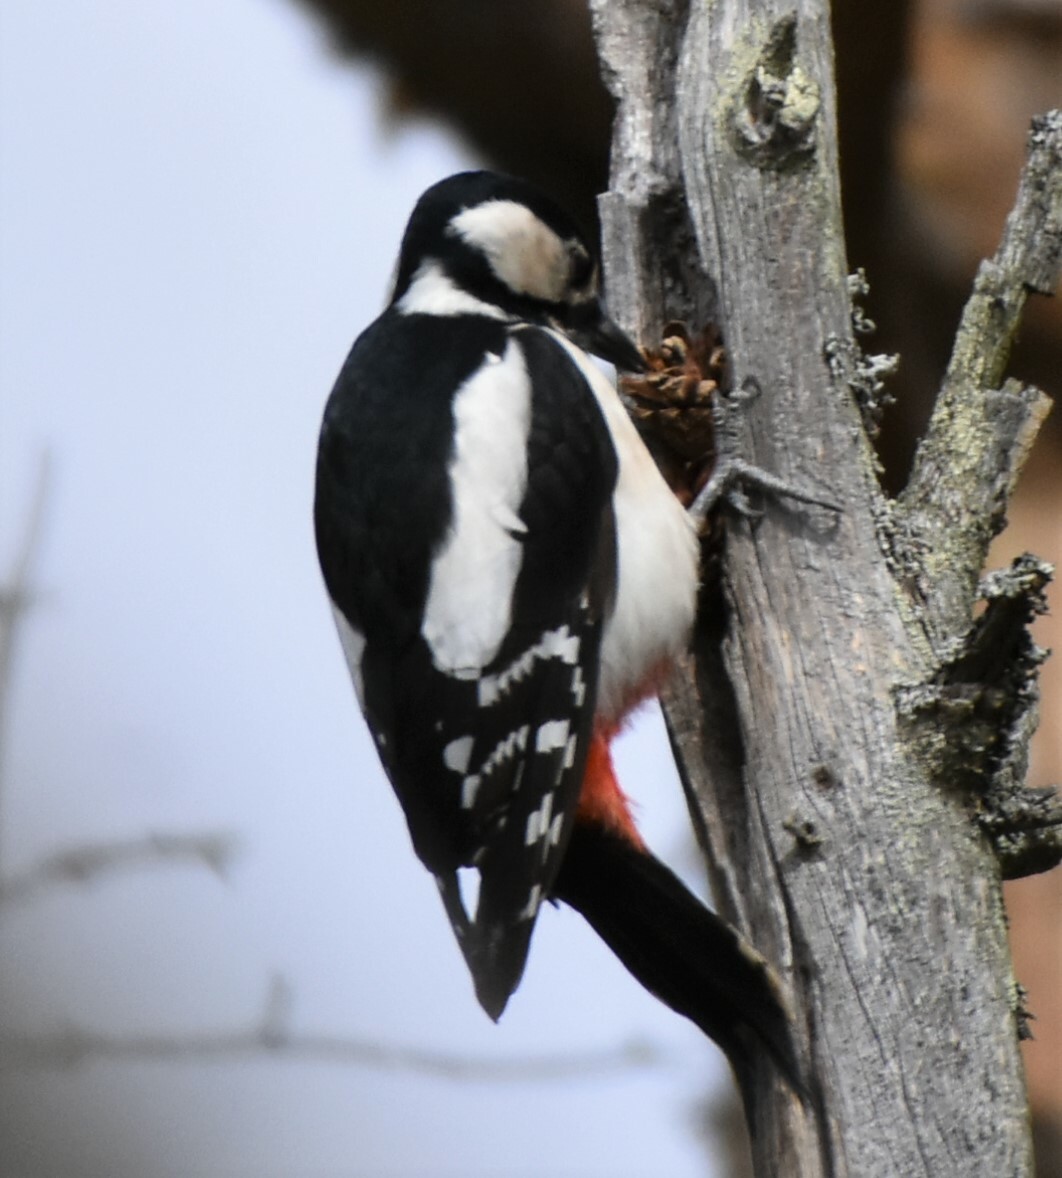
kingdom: Animalia
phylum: Chordata
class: Aves
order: Piciformes
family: Picidae
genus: Dendrocopos
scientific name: Dendrocopos major
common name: Great spotted woodpecker
